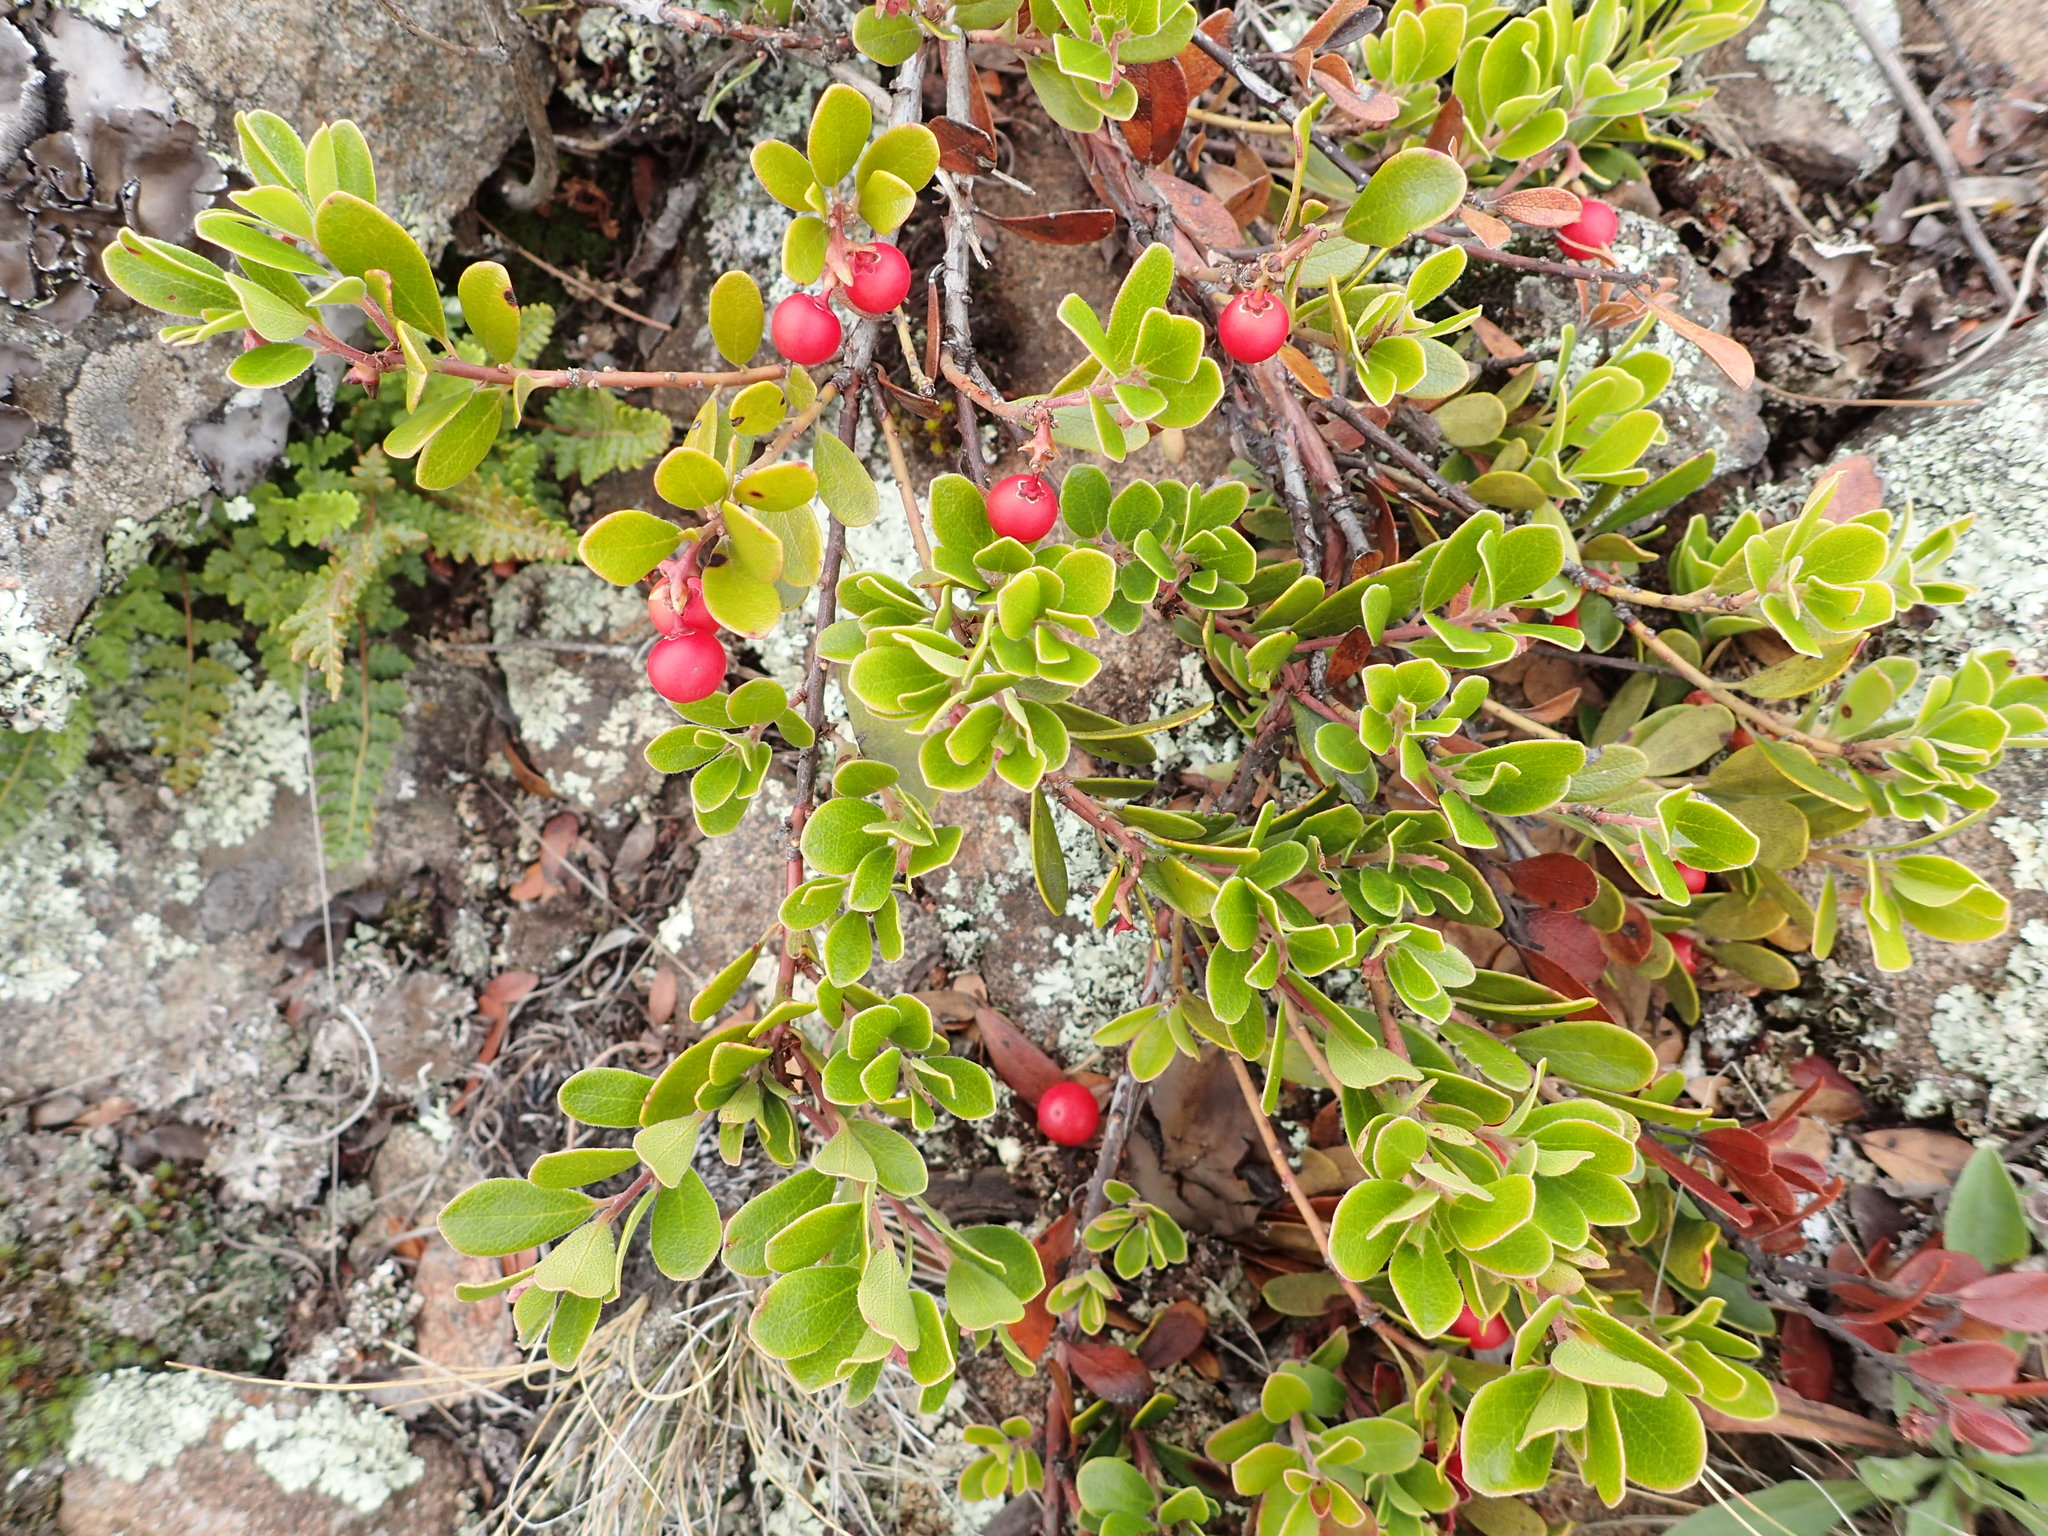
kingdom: Plantae
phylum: Tracheophyta
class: Magnoliopsida
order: Ericales
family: Ericaceae
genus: Arctostaphylos
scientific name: Arctostaphylos uva-ursi
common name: Bearberry
